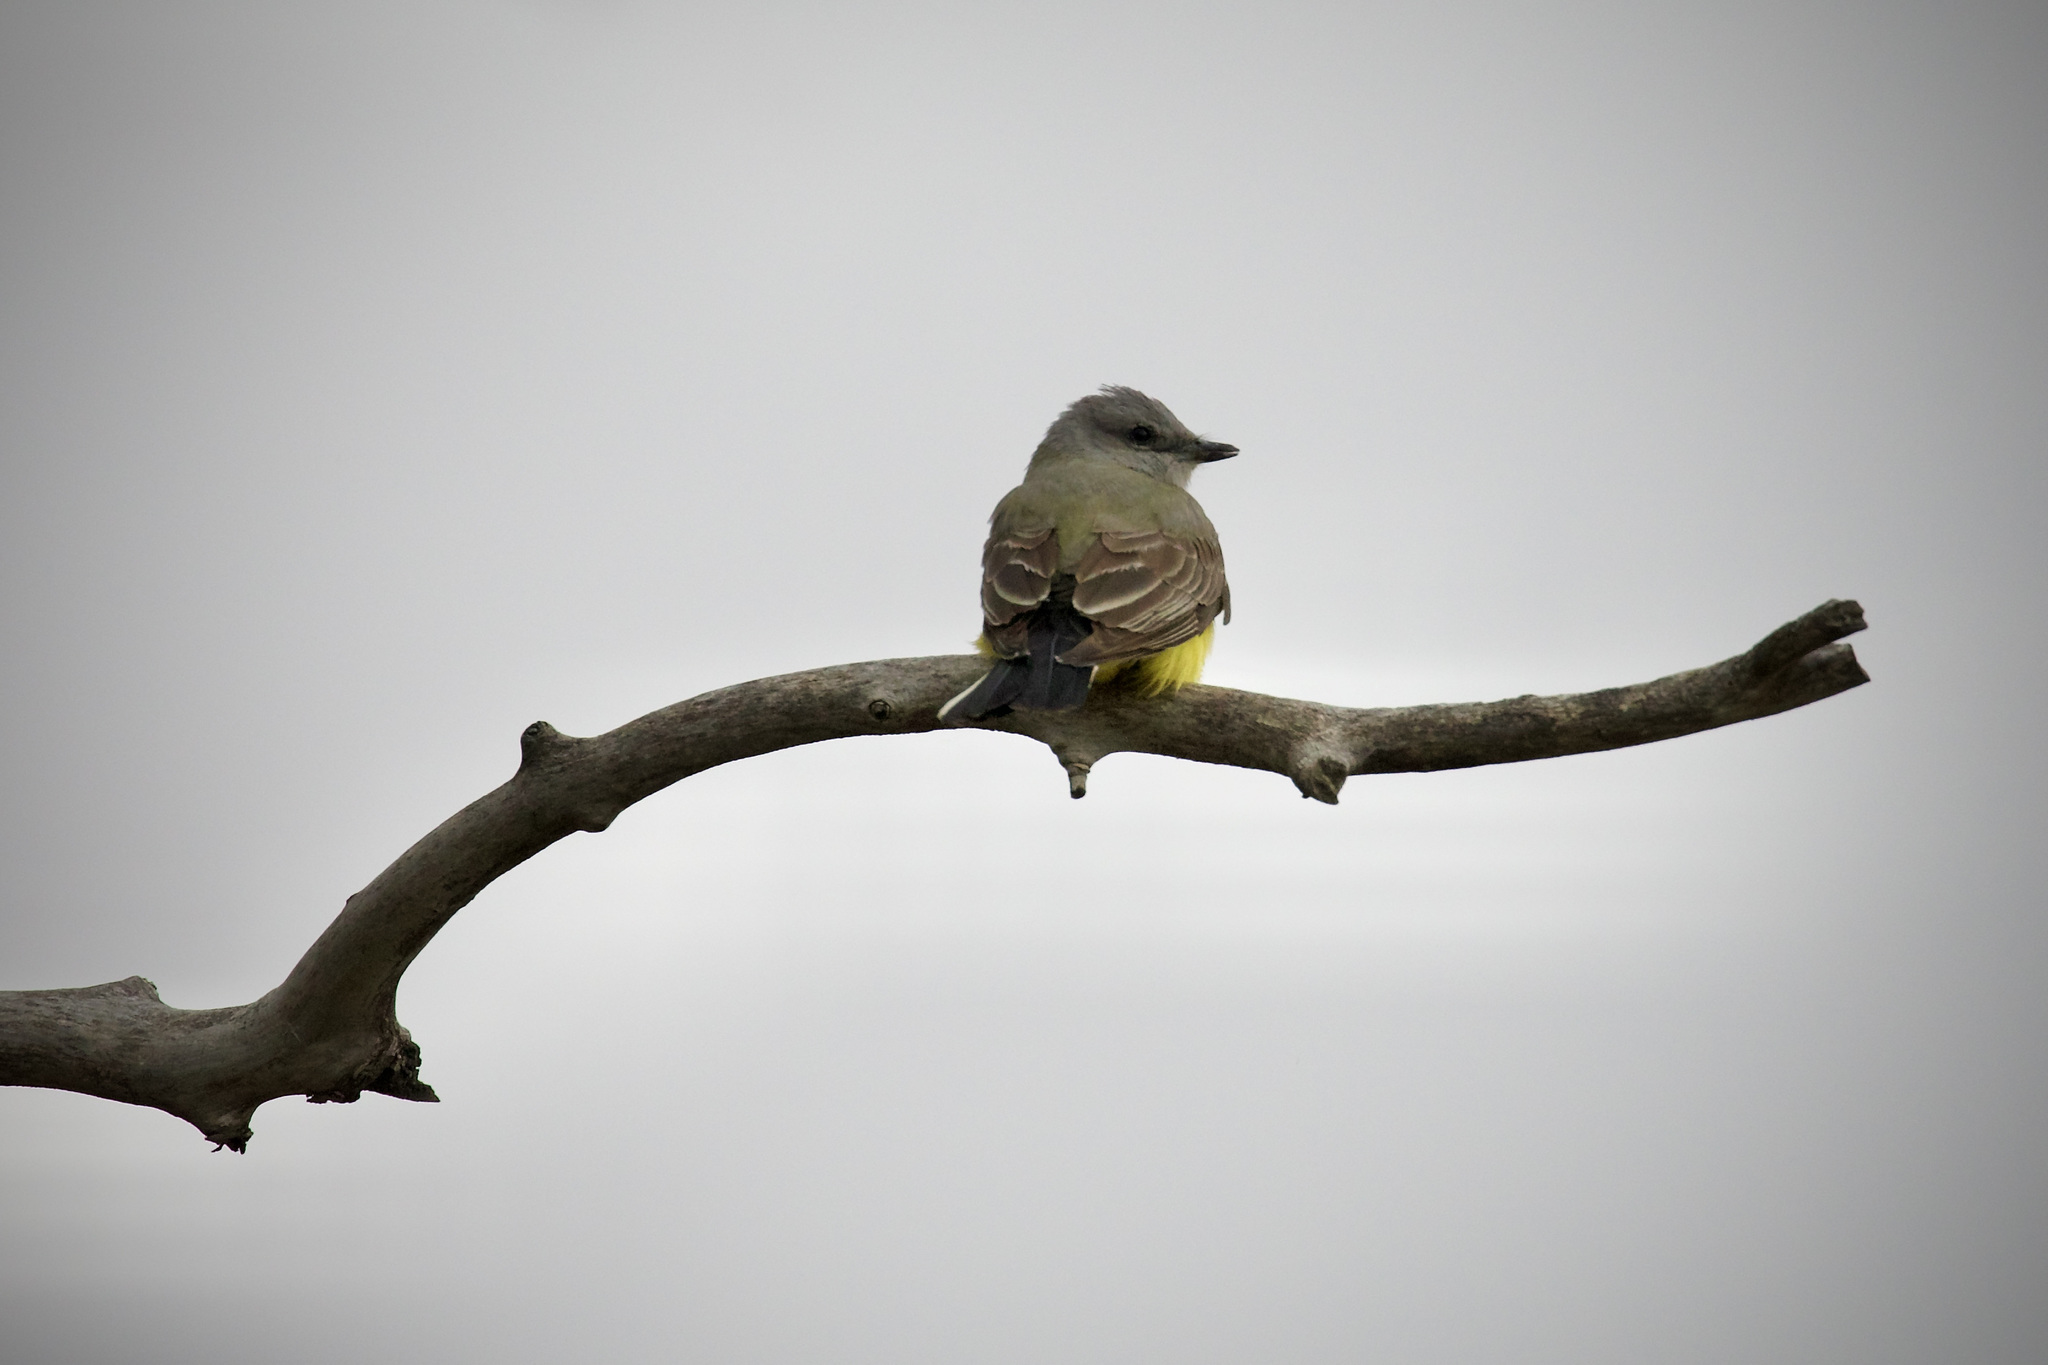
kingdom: Animalia
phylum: Chordata
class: Aves
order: Passeriformes
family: Tyrannidae
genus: Tyrannus
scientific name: Tyrannus verticalis
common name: Western kingbird
